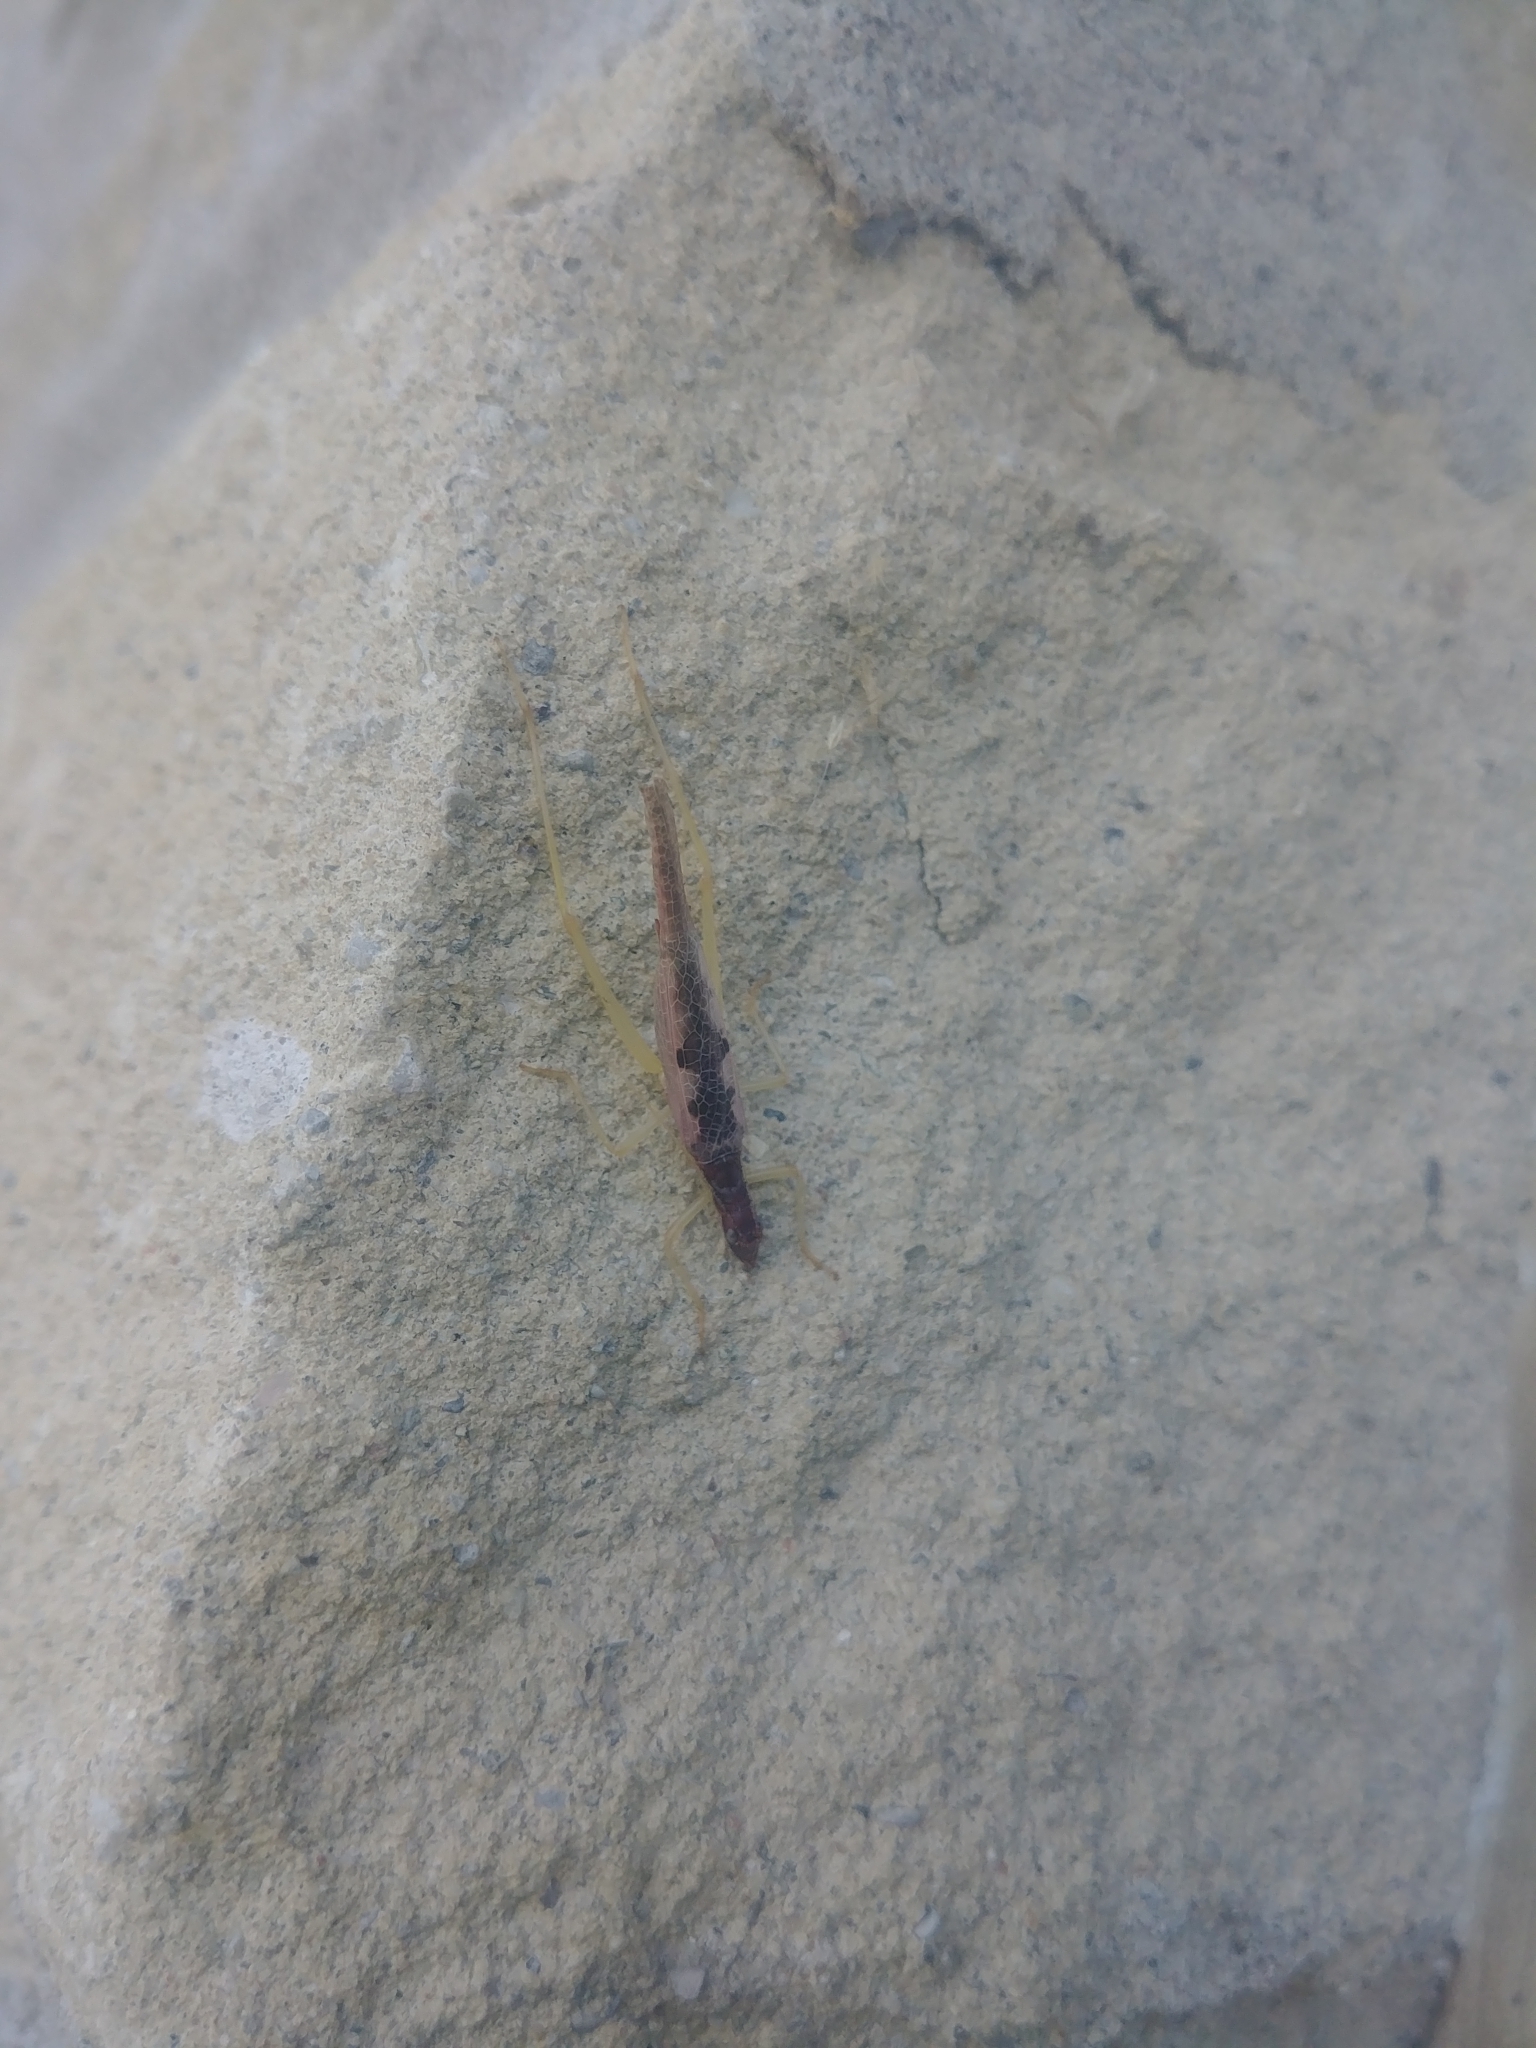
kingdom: Animalia
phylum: Arthropoda
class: Insecta
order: Orthoptera
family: Gryllidae
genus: Neoxabea
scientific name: Neoxabea bipunctata
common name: Two-spotted tree cricket
